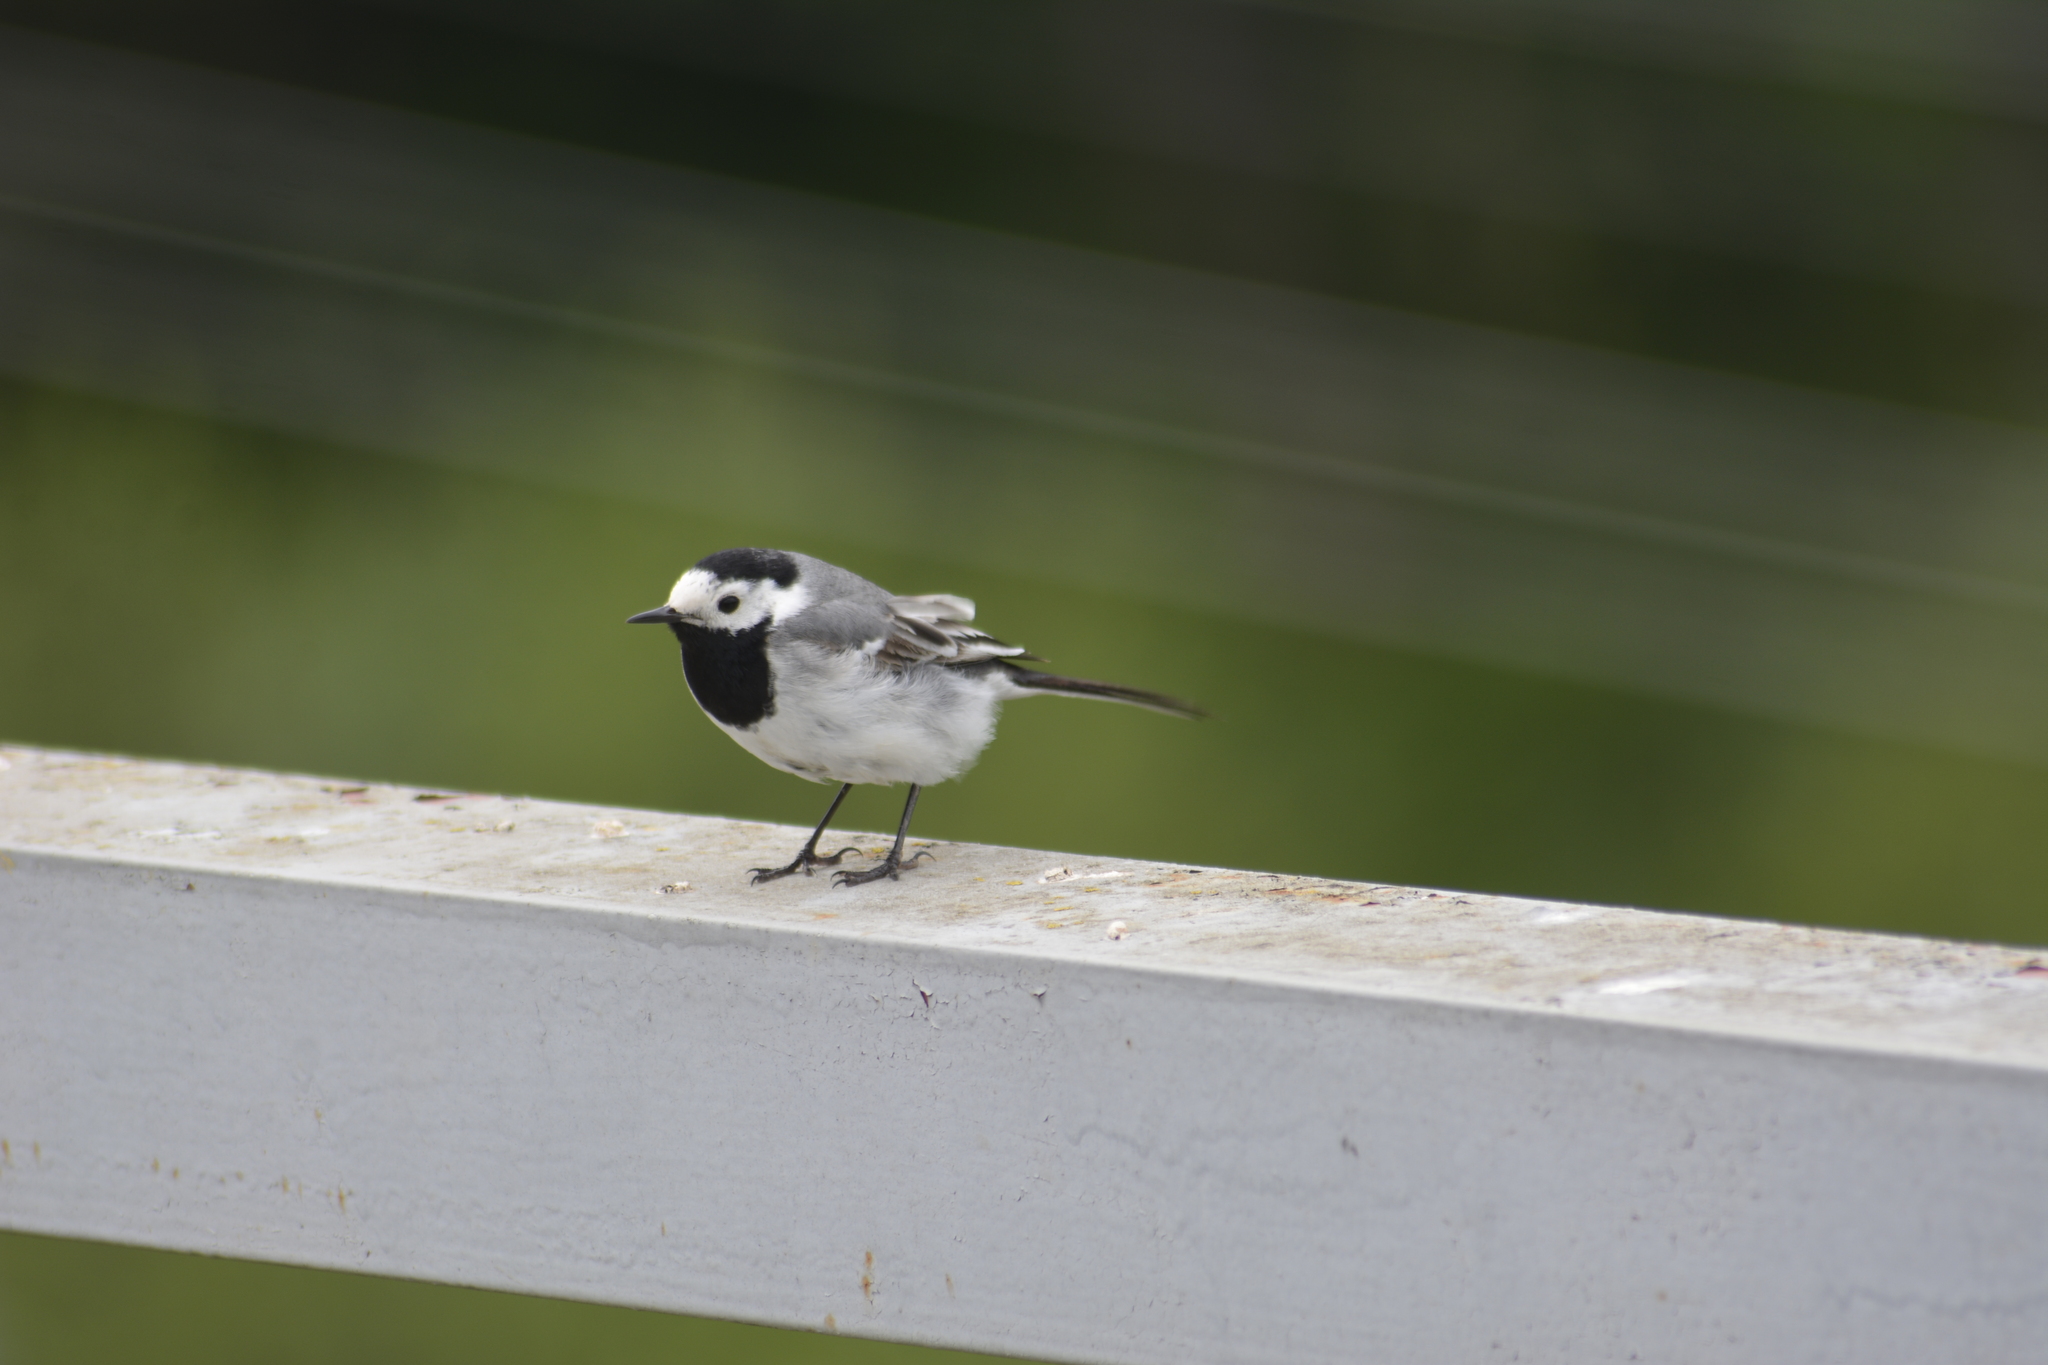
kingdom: Animalia
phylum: Chordata
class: Aves
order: Passeriformes
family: Motacillidae
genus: Motacilla
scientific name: Motacilla alba
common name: White wagtail
